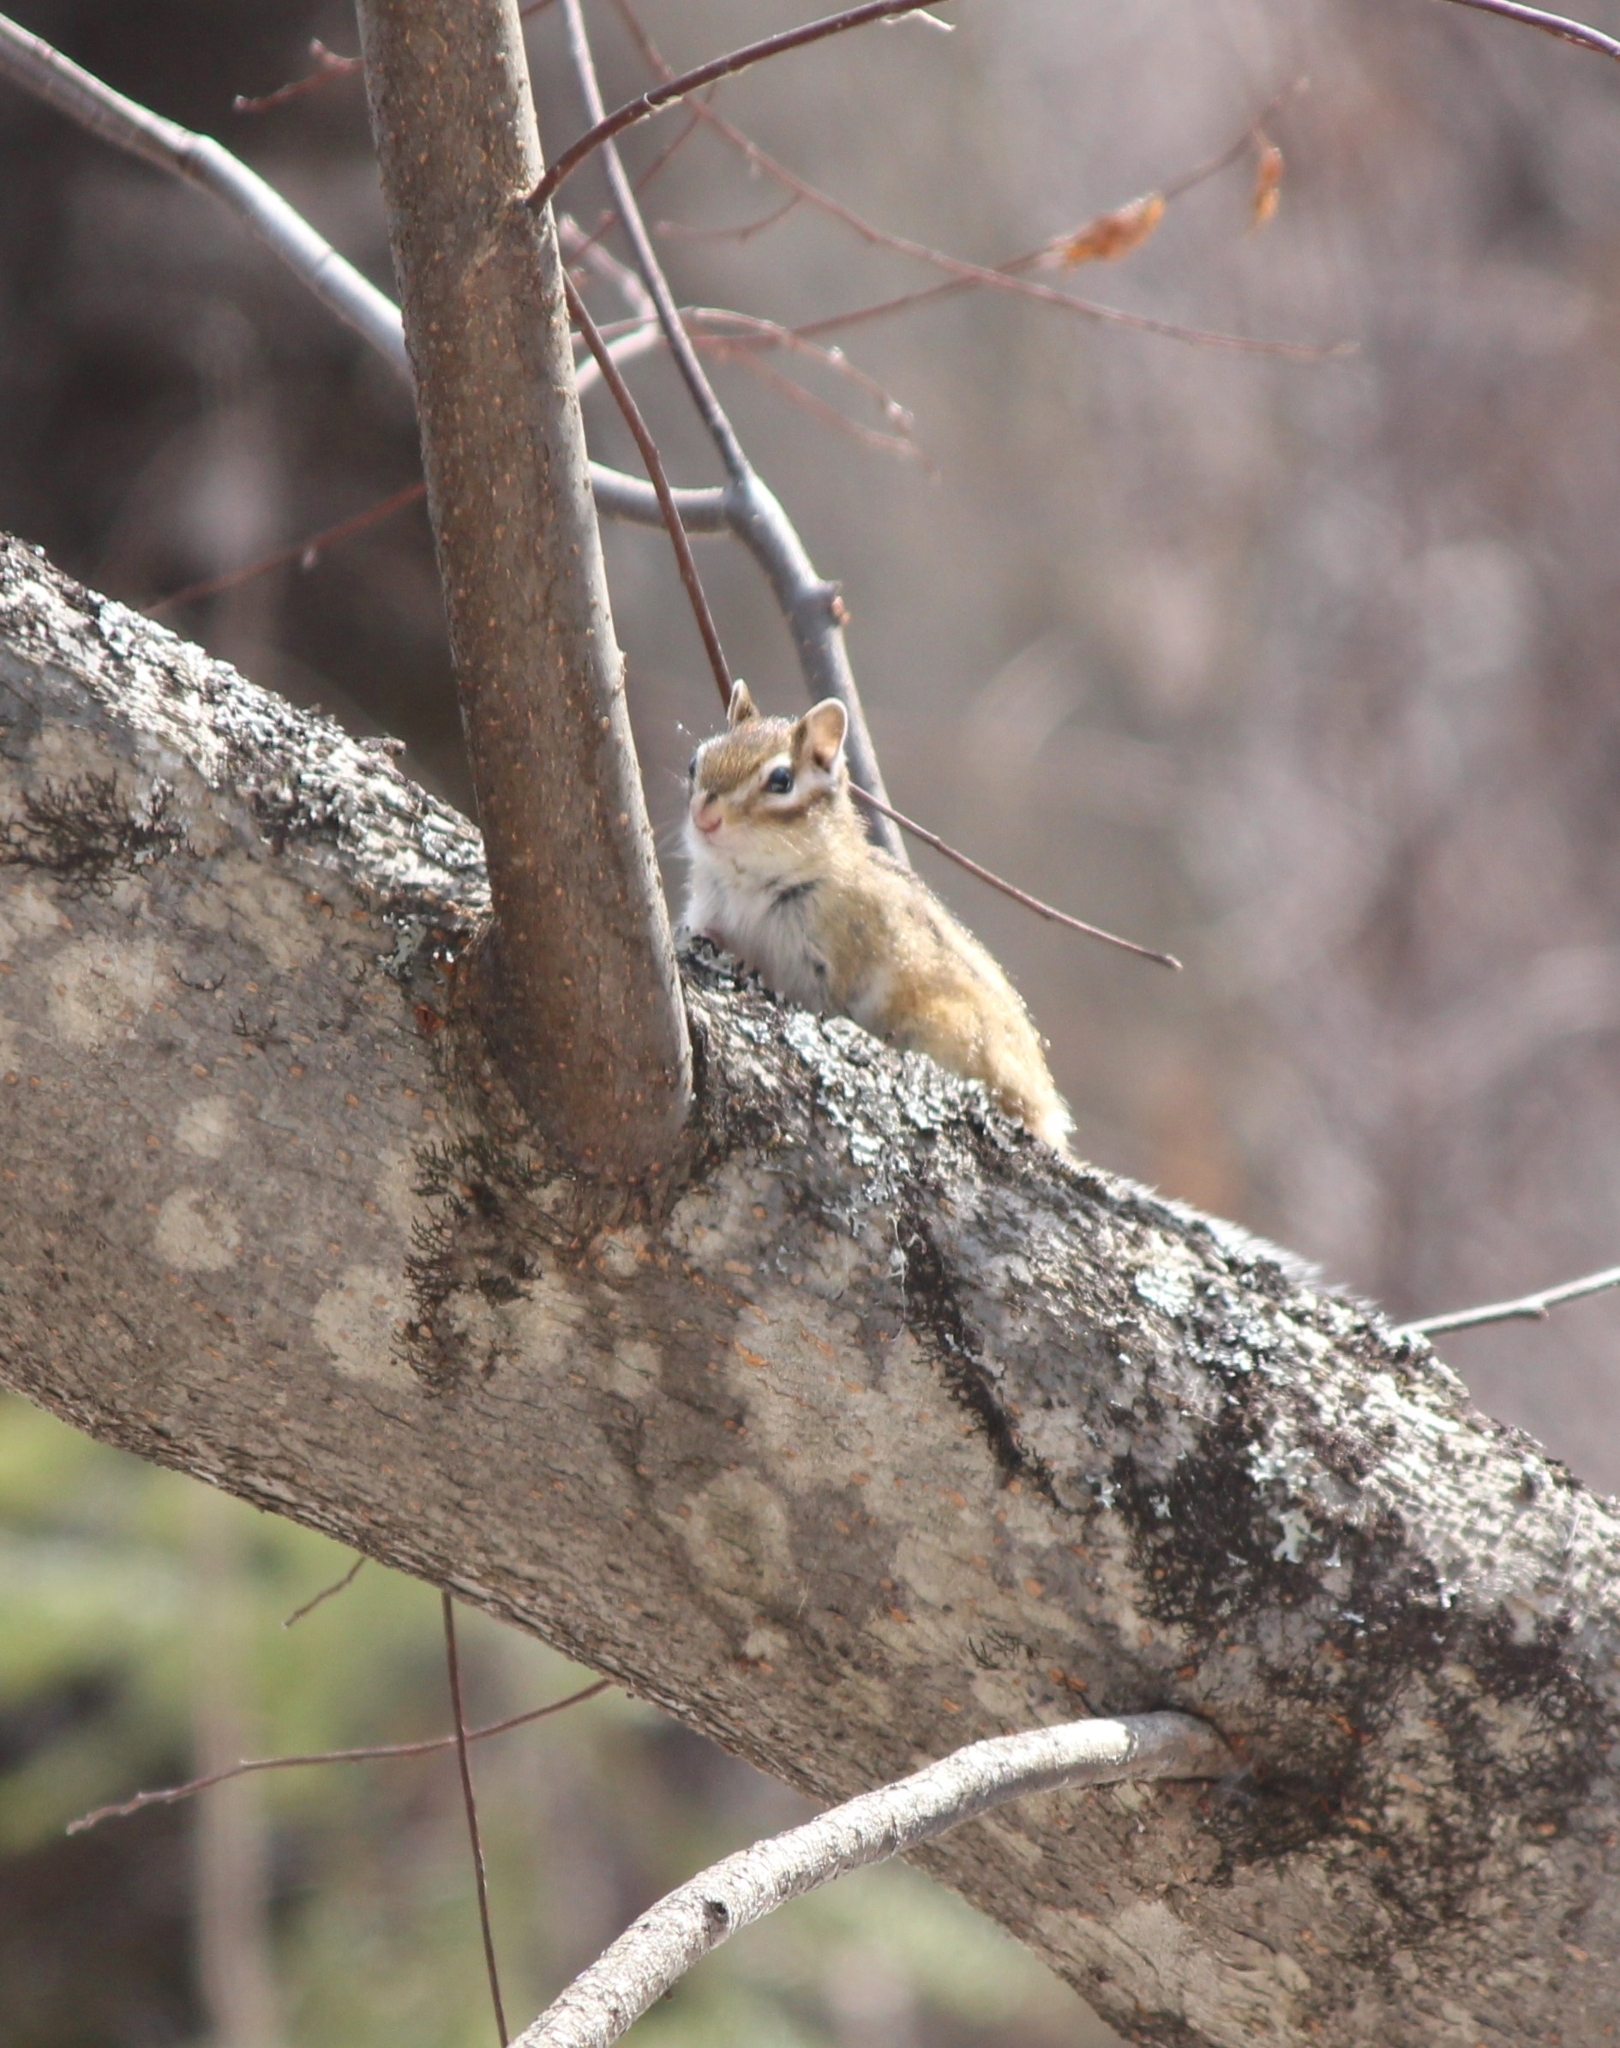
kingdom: Animalia
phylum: Chordata
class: Mammalia
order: Rodentia
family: Sciuridae
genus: Tamias
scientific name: Tamias sibiricus
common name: Siberian chipmunk
